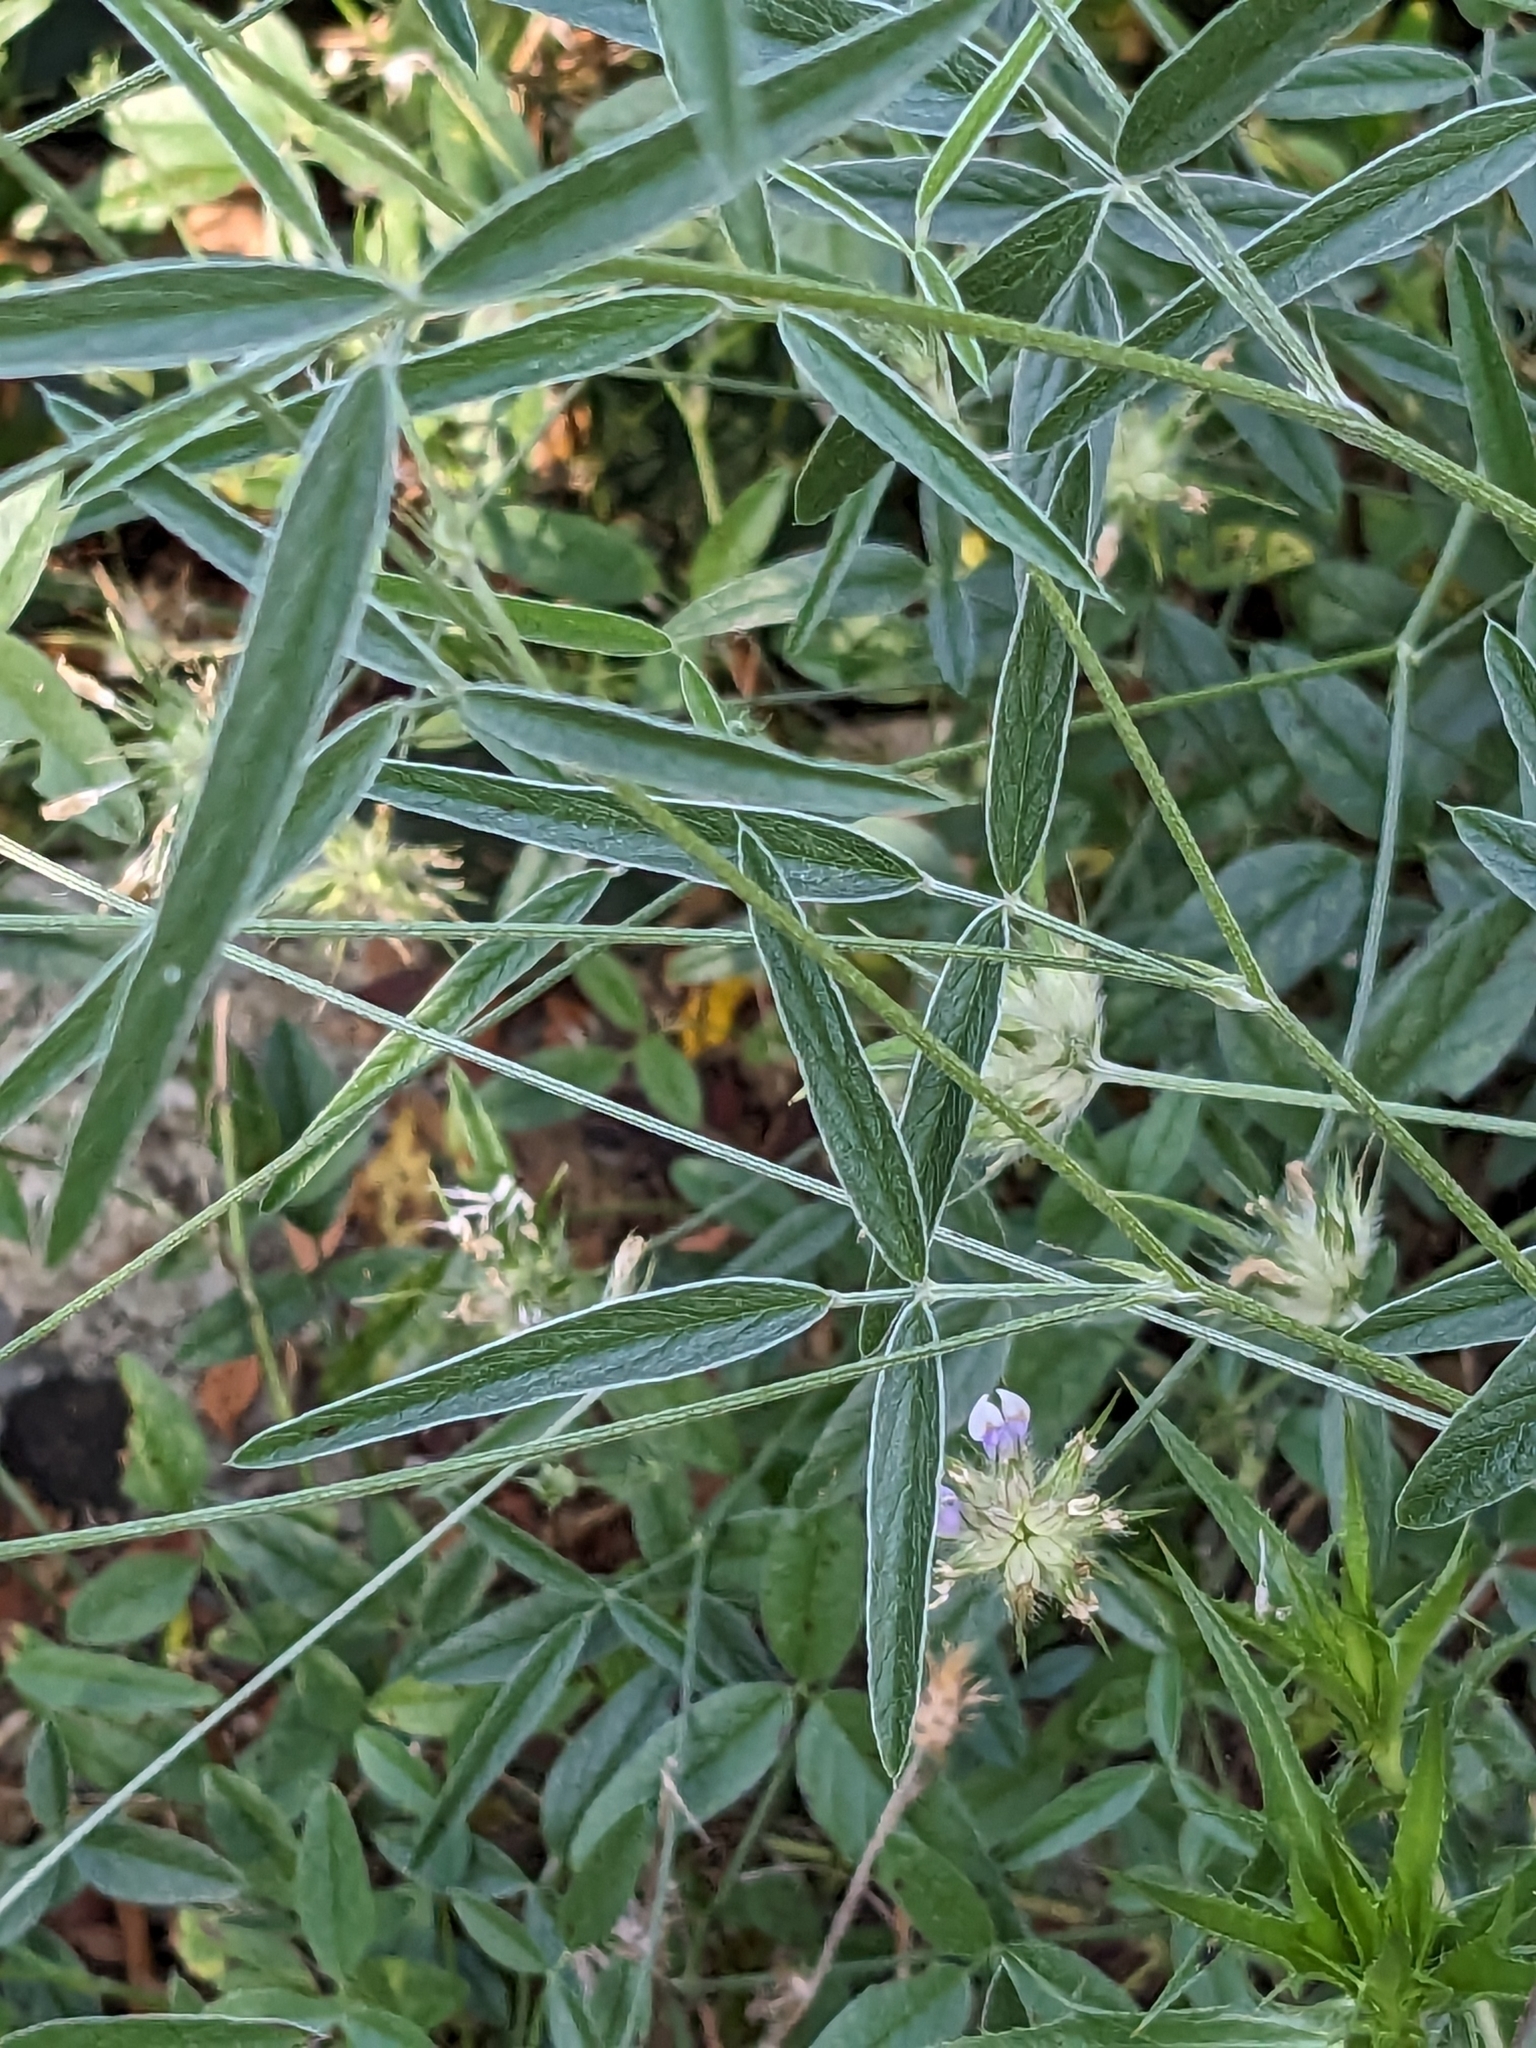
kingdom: Plantae
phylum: Tracheophyta
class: Magnoliopsida
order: Fabales
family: Fabaceae
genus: Bituminaria
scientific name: Bituminaria bituminosa
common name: Arabian pea
